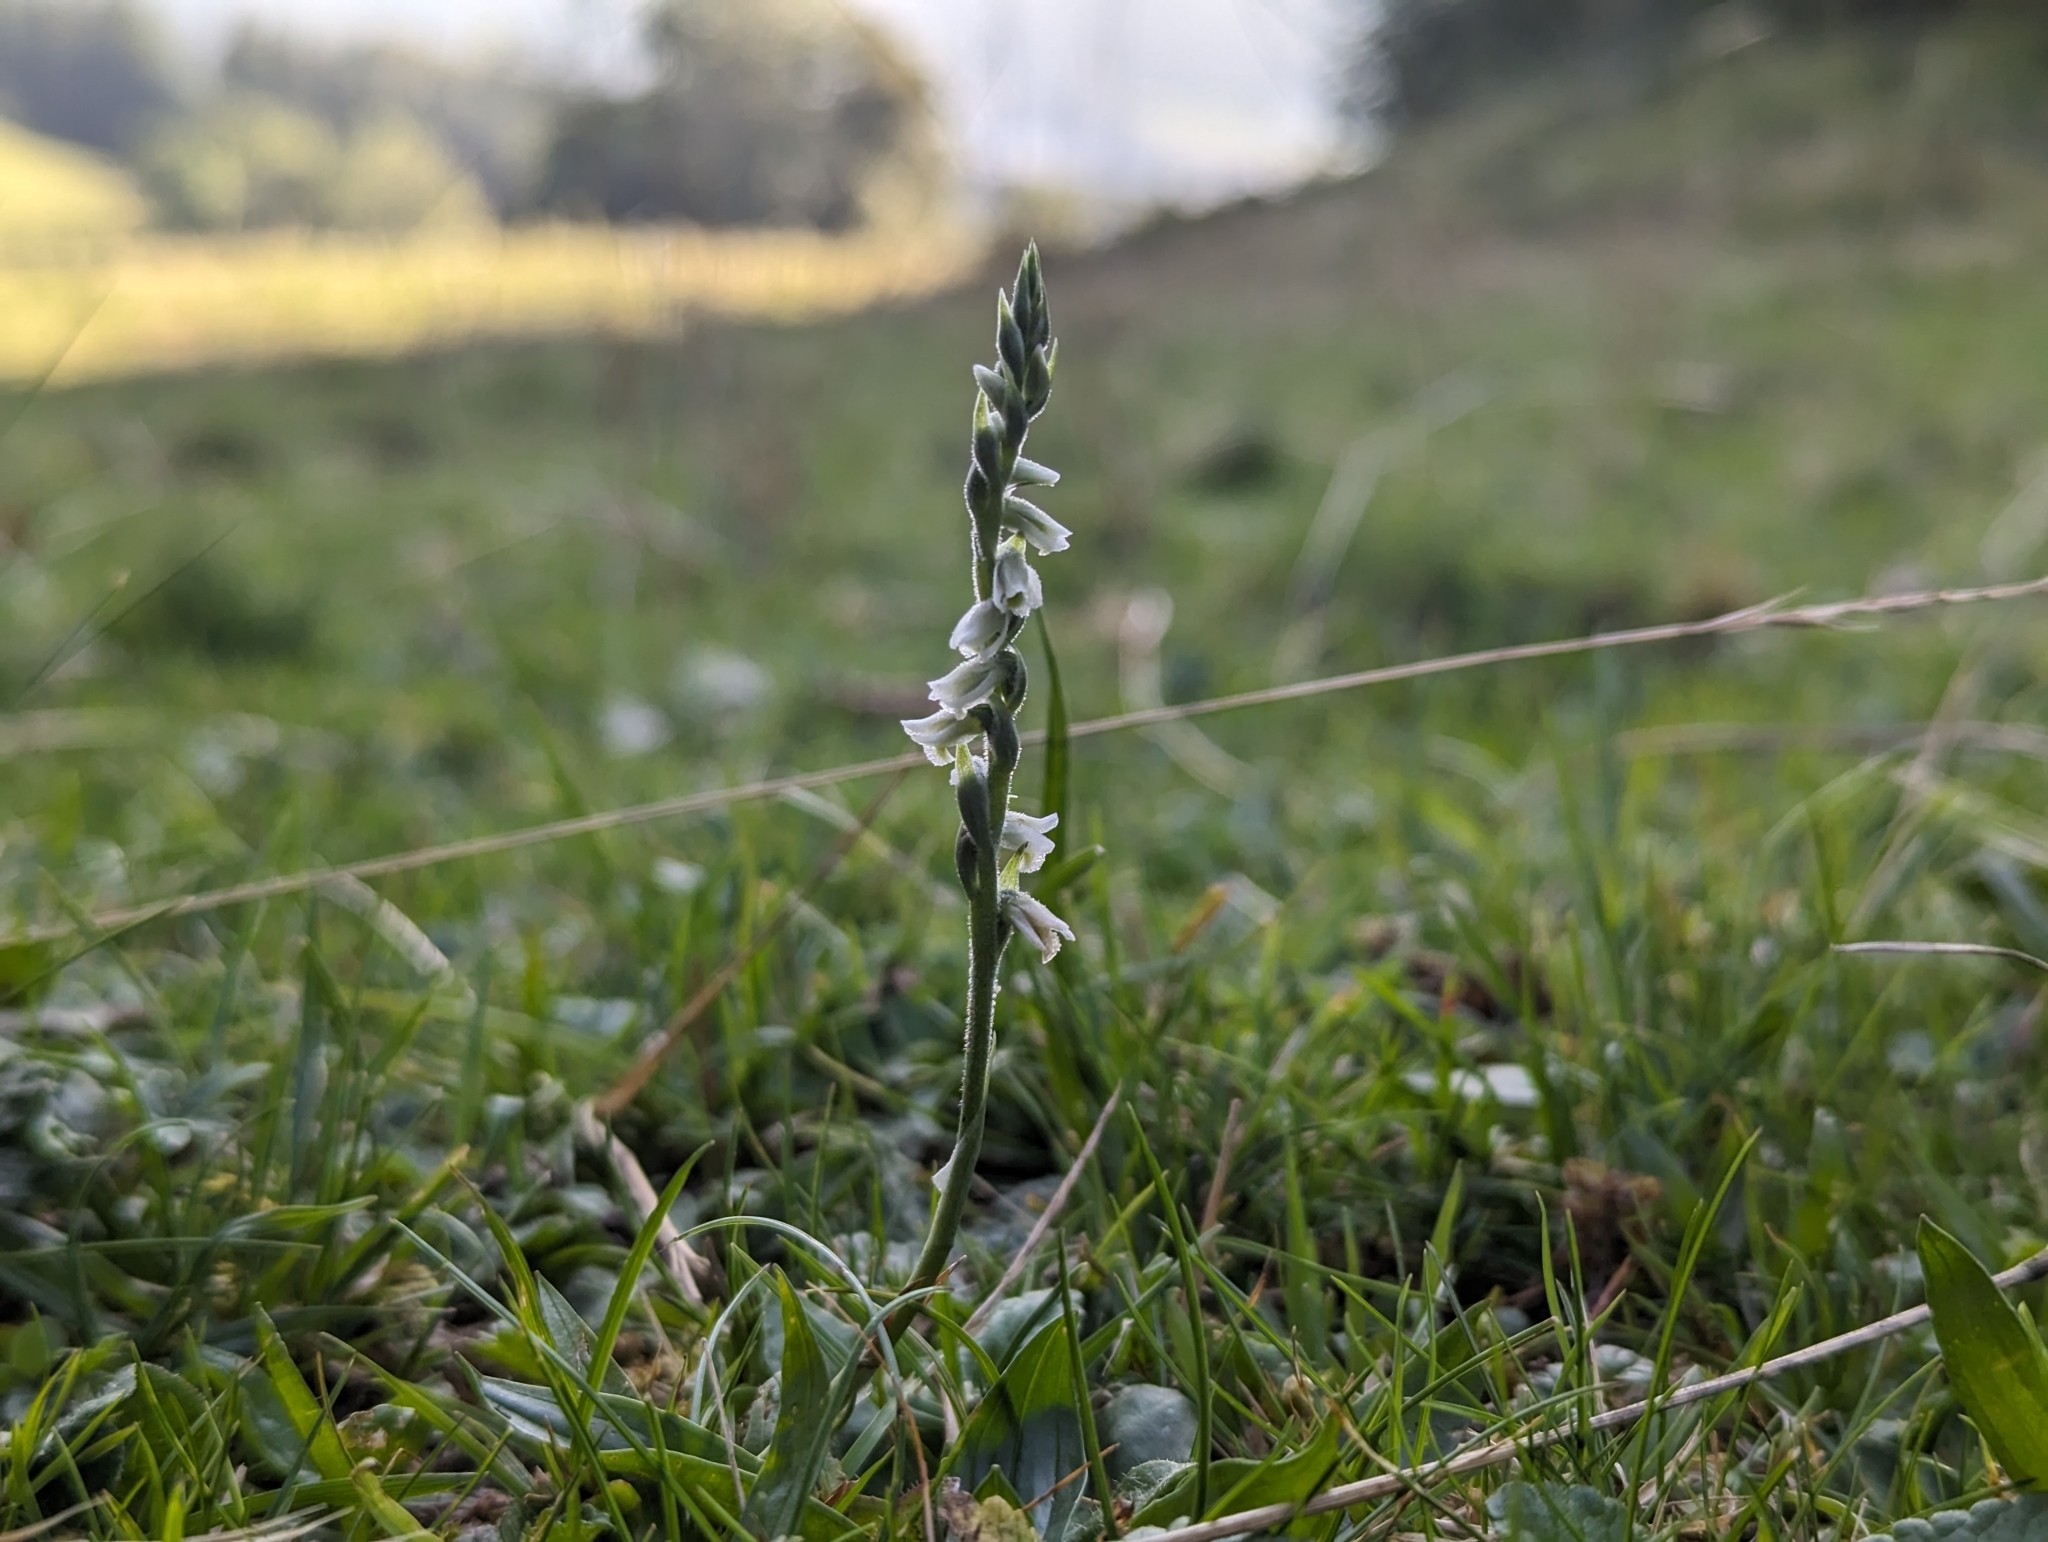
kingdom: Plantae
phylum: Tracheophyta
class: Liliopsida
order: Asparagales
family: Orchidaceae
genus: Spiranthes
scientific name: Spiranthes spiralis
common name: Autumn lady's-tresses
